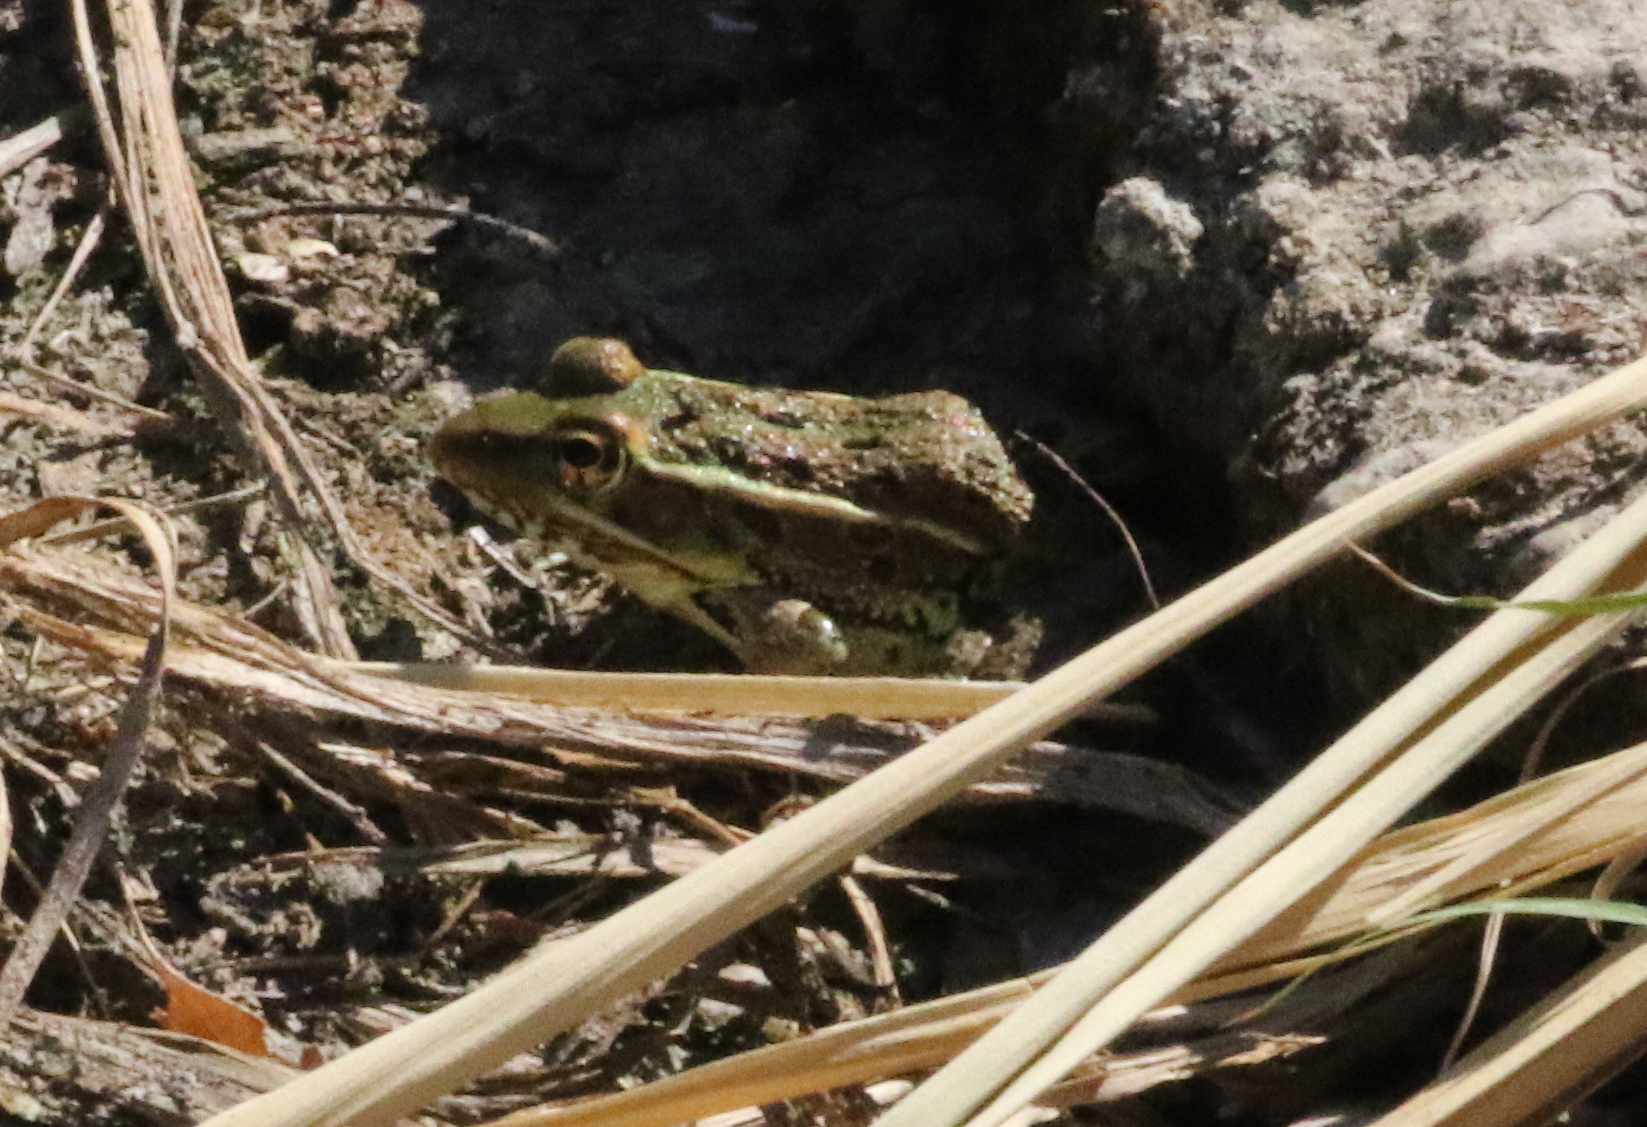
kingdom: Animalia
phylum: Chordata
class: Amphibia
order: Anura
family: Ranidae
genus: Lithobates
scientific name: Lithobates berlandieri
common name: Rio grande leopard frog
